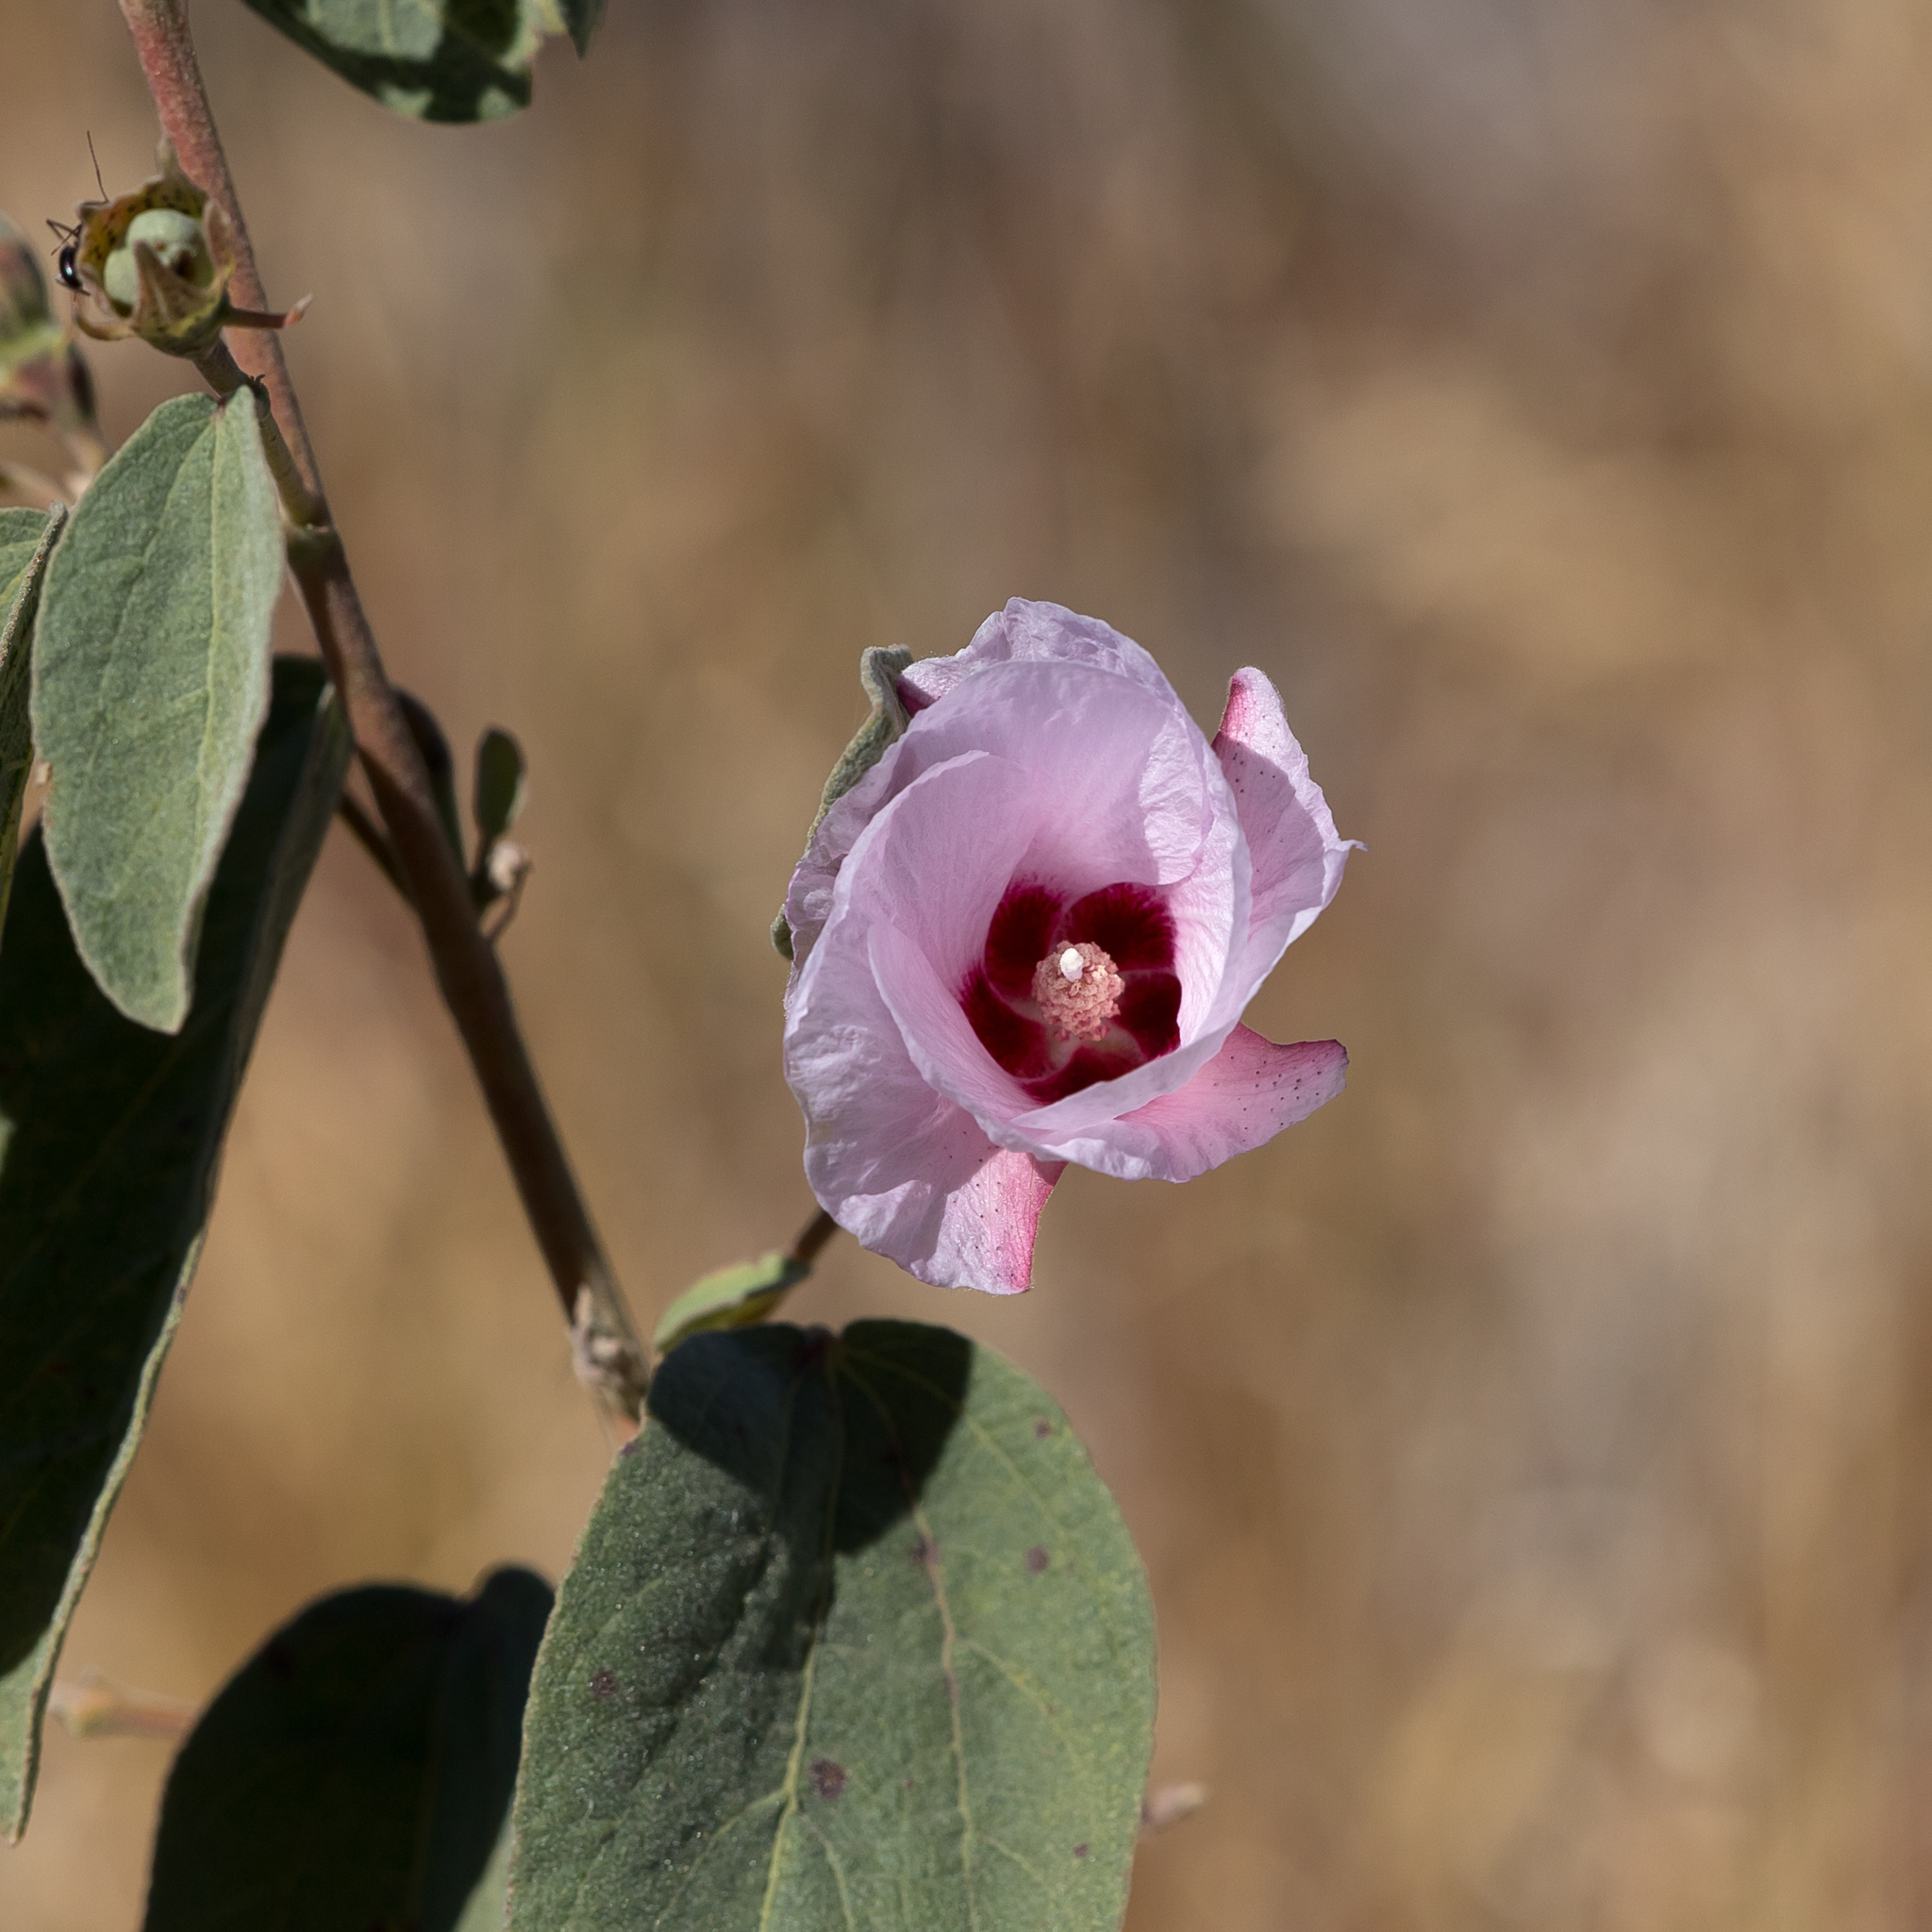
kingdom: Plantae
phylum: Tracheophyta
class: Magnoliopsida
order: Malvales
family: Malvaceae
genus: Cienfuegosia
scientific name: Cienfuegosia australis
